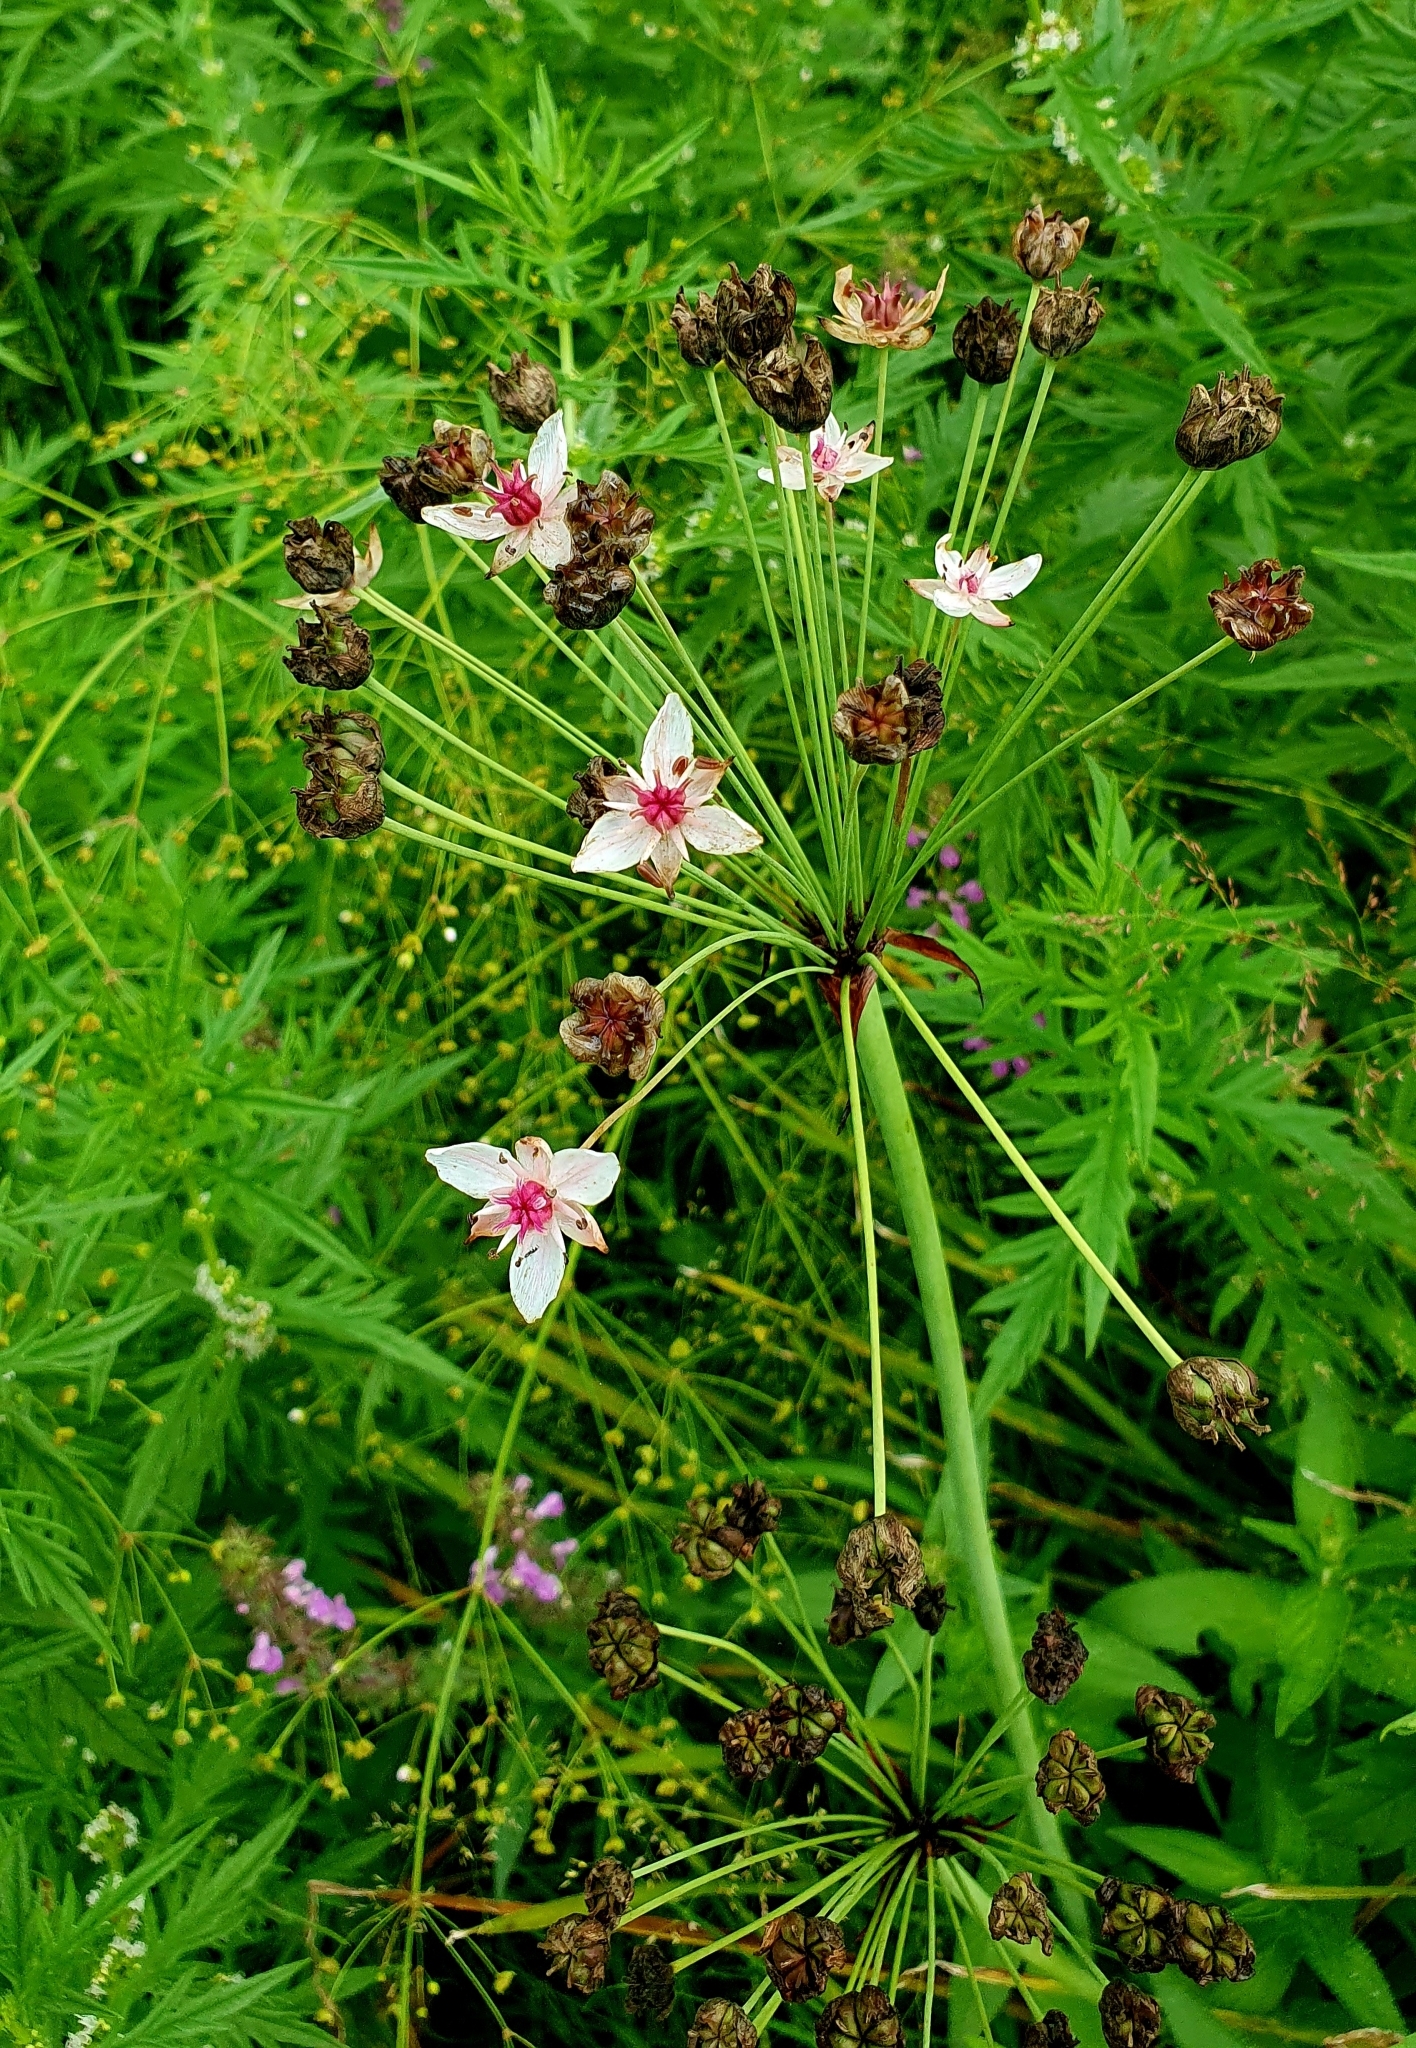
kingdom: Plantae
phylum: Tracheophyta
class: Liliopsida
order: Alismatales
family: Butomaceae
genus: Butomus
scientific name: Butomus umbellatus
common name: Flowering-rush
